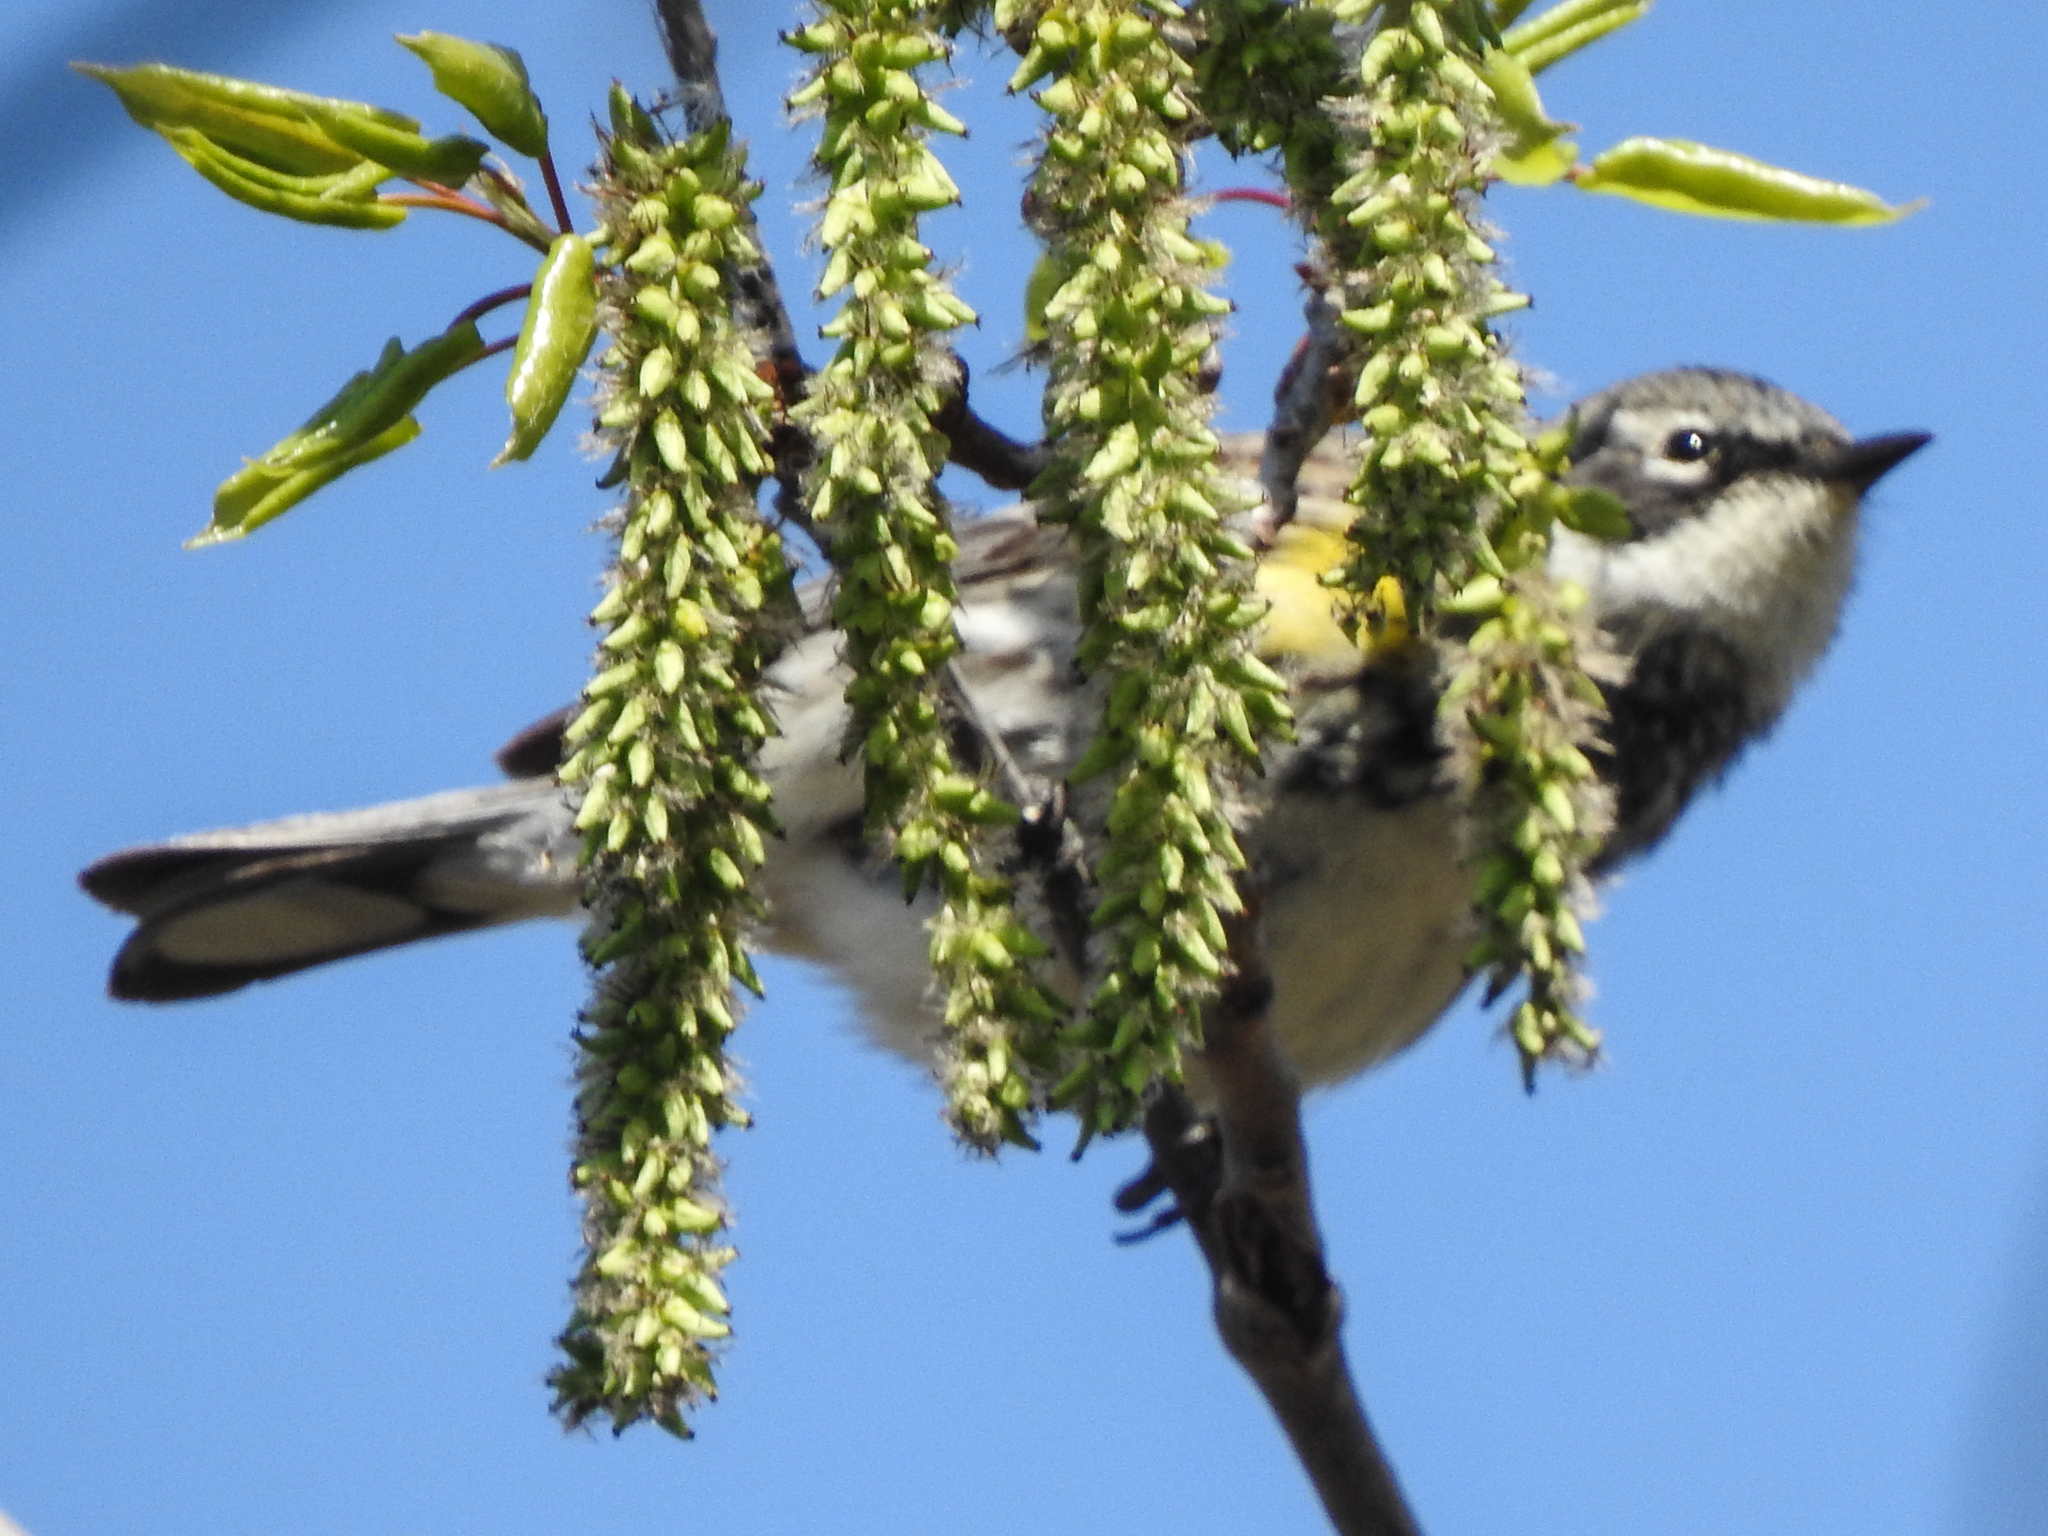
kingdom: Animalia
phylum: Chordata
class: Aves
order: Passeriformes
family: Parulidae
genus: Setophaga
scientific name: Setophaga coronata
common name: Myrtle warbler
